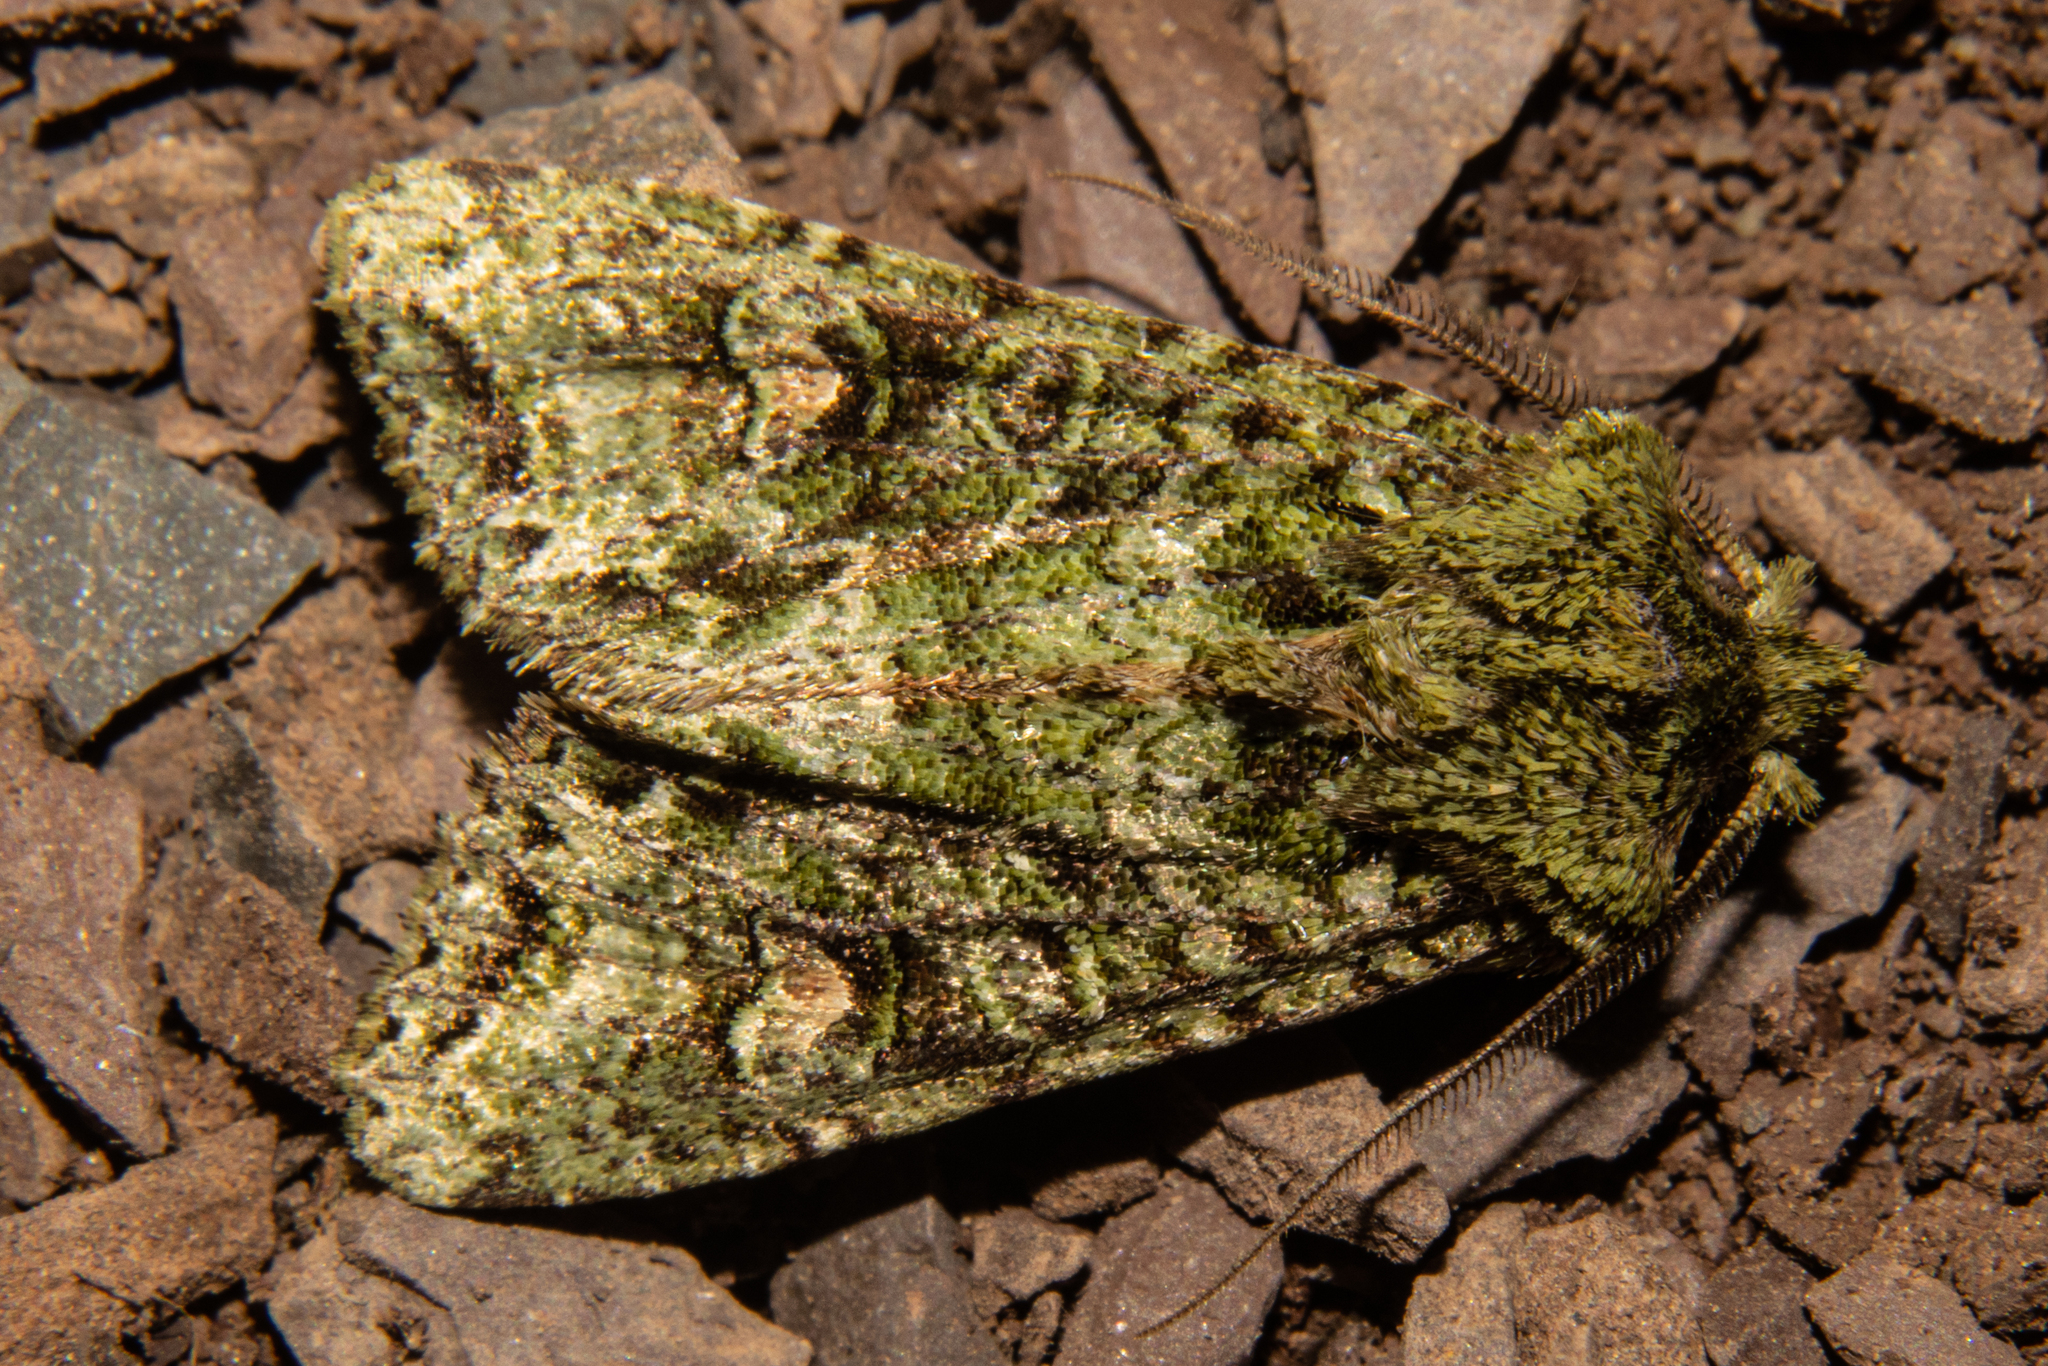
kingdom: Animalia
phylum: Arthropoda
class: Insecta
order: Lepidoptera
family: Noctuidae
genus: Ichneutica
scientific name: Ichneutica
